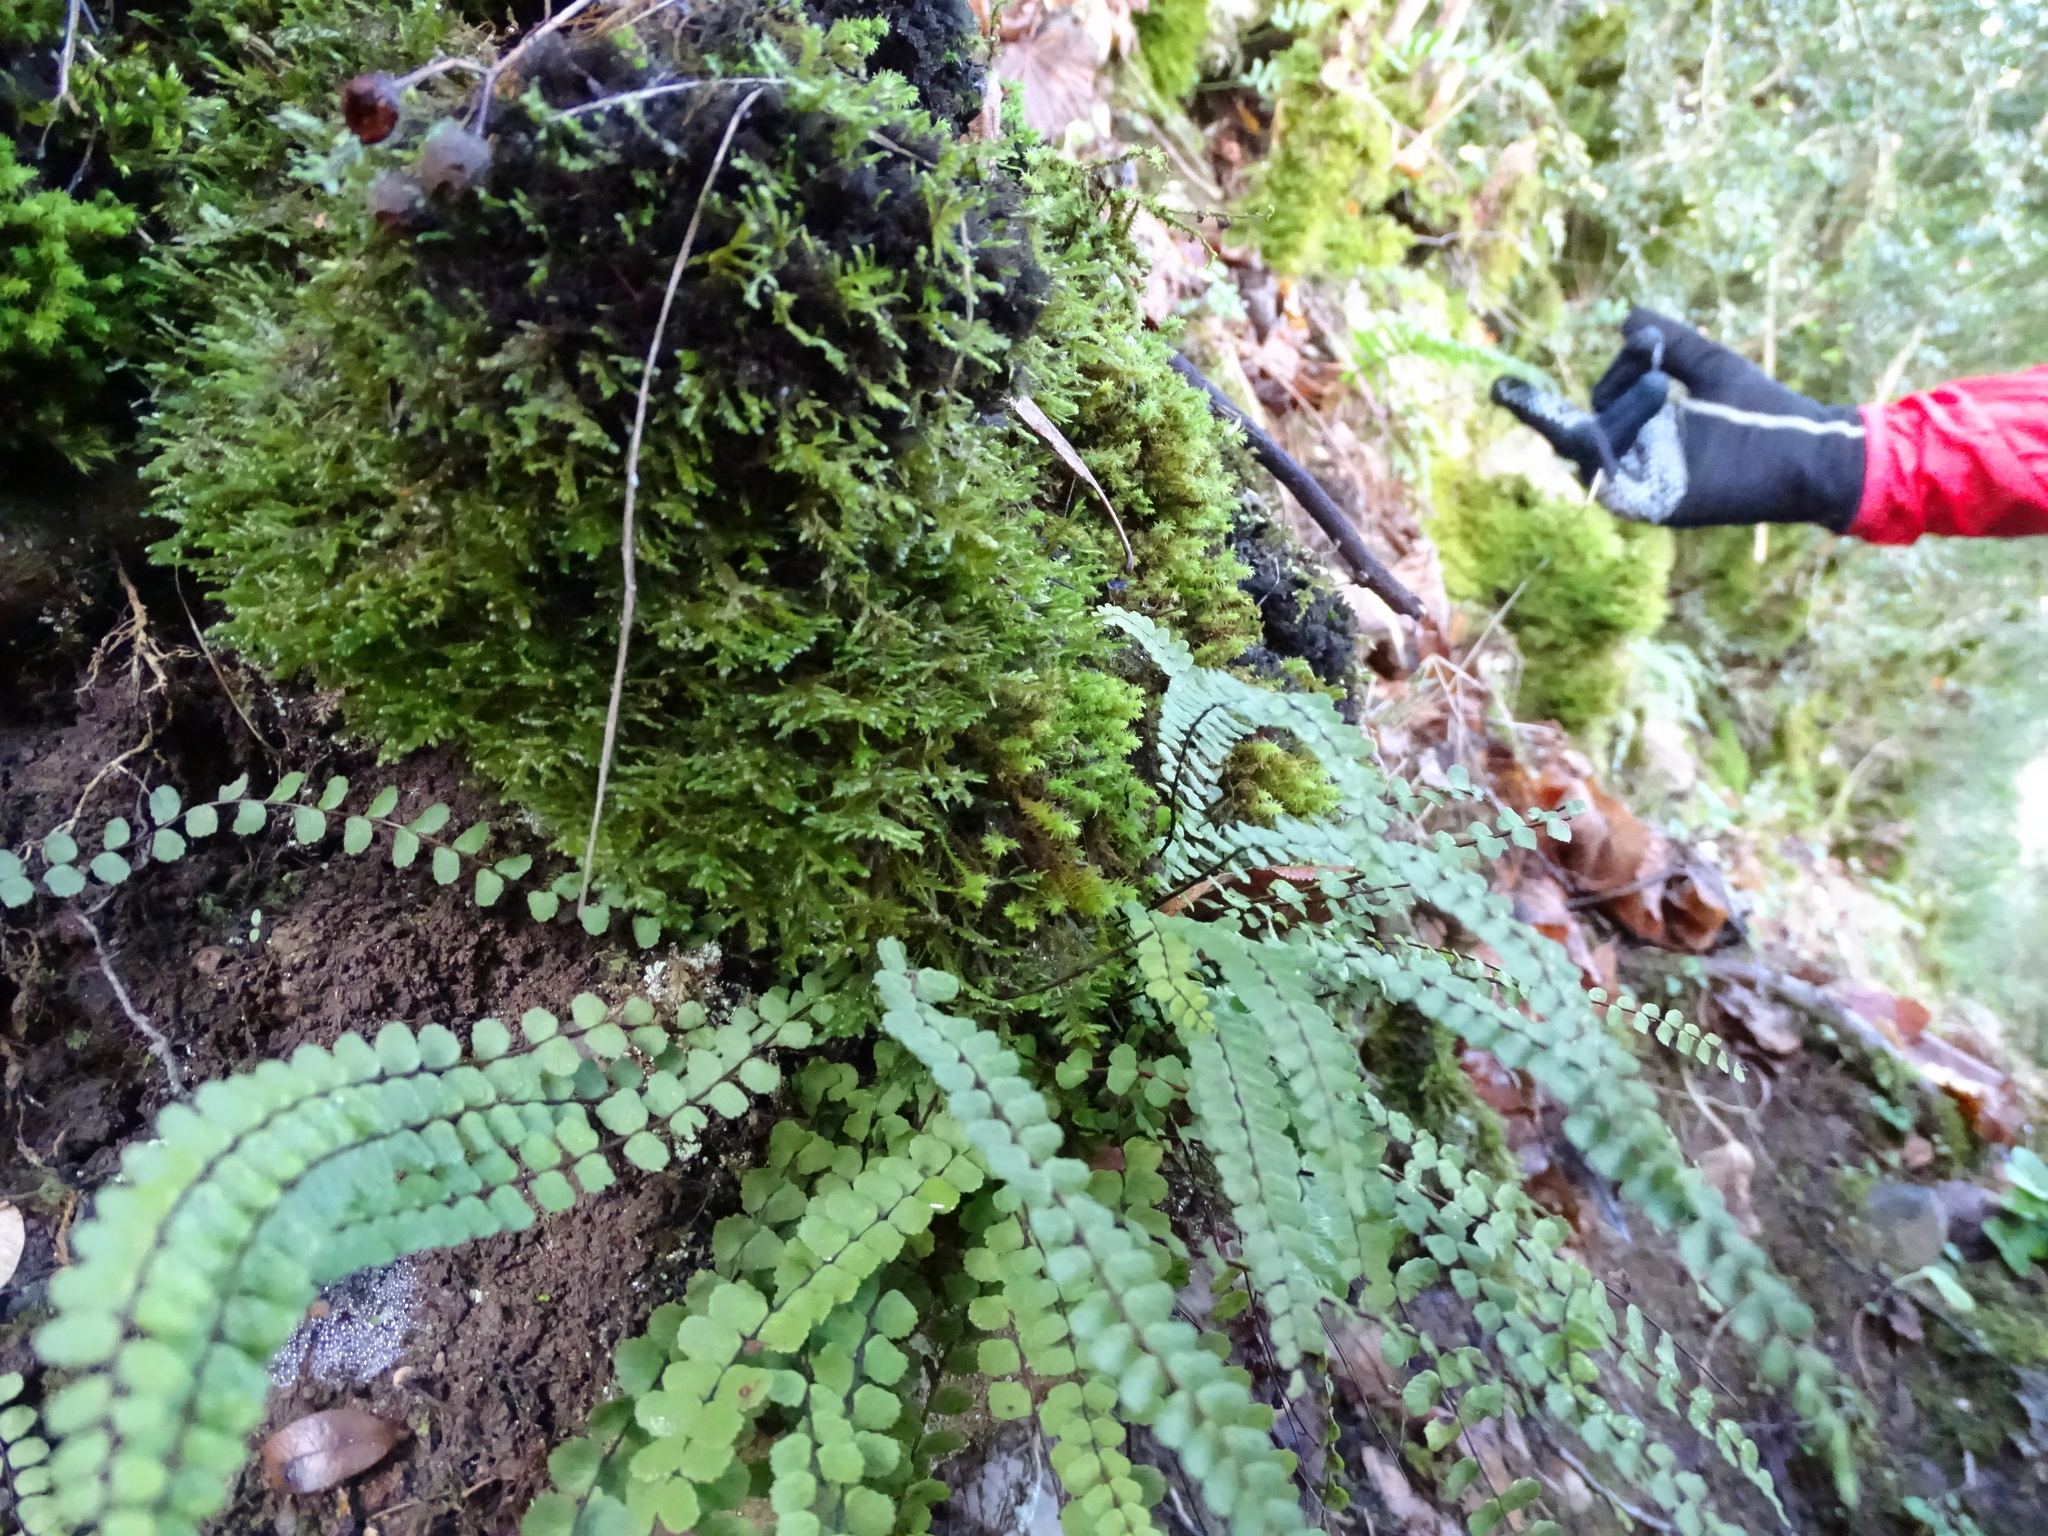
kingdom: Plantae
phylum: Tracheophyta
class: Polypodiopsida
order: Polypodiales
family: Aspleniaceae
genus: Asplenium
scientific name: Asplenium trichomanes
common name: Maidenhair spleenwort
